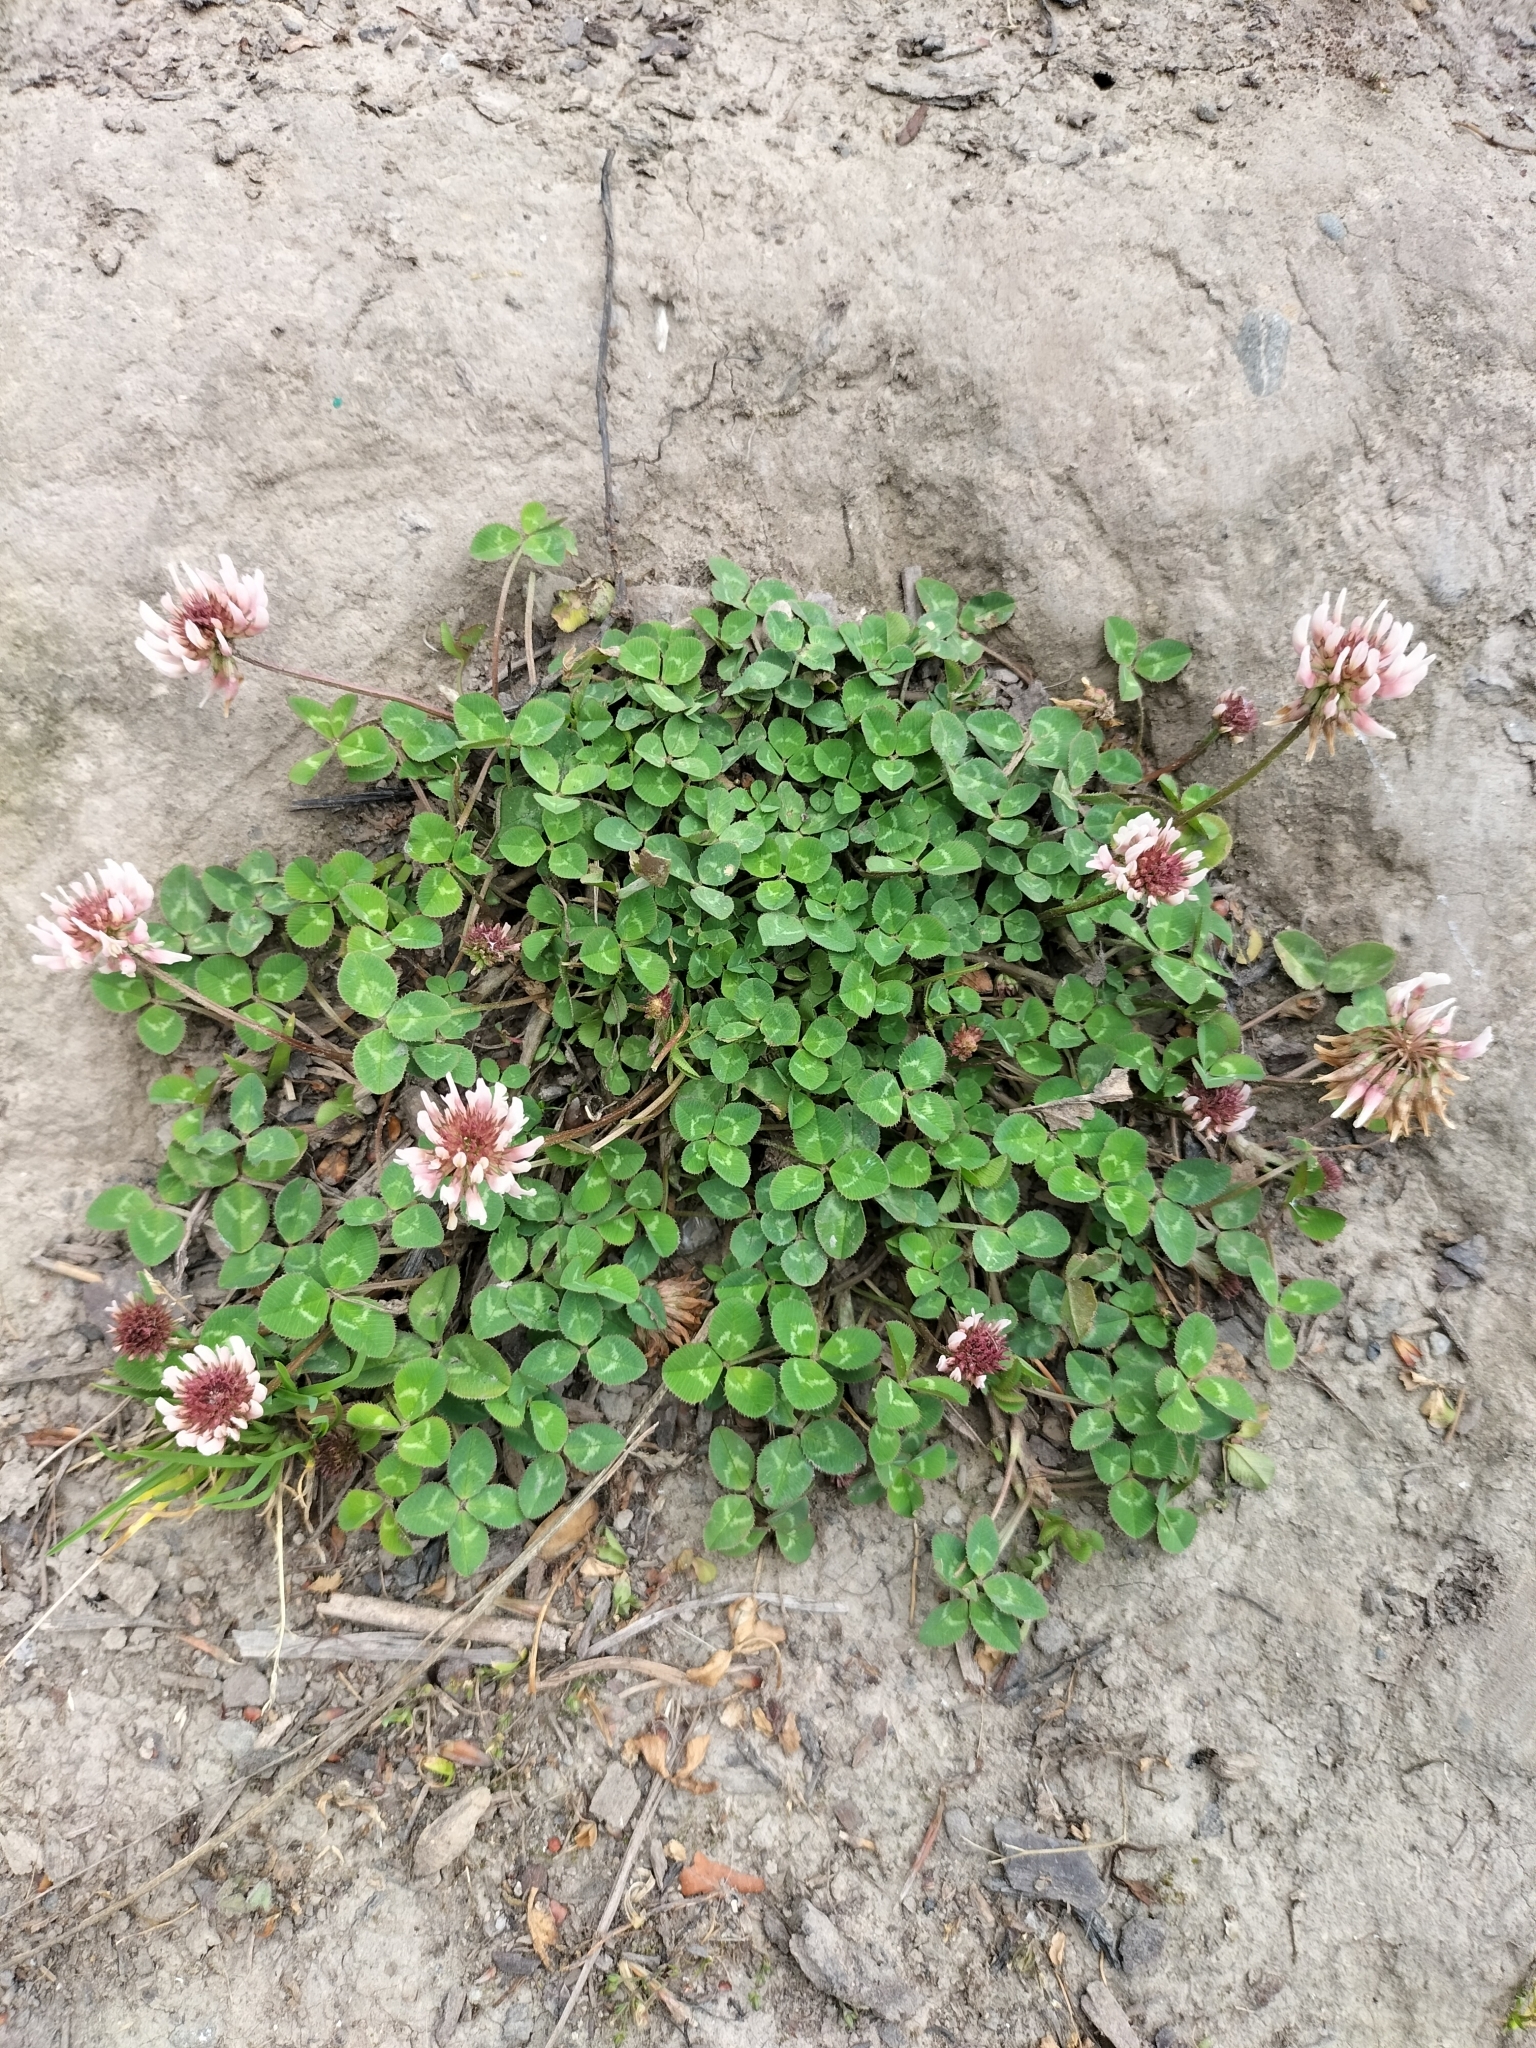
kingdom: Plantae
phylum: Tracheophyta
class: Magnoliopsida
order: Fabales
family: Fabaceae
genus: Trifolium
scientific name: Trifolium repens
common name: White clover
